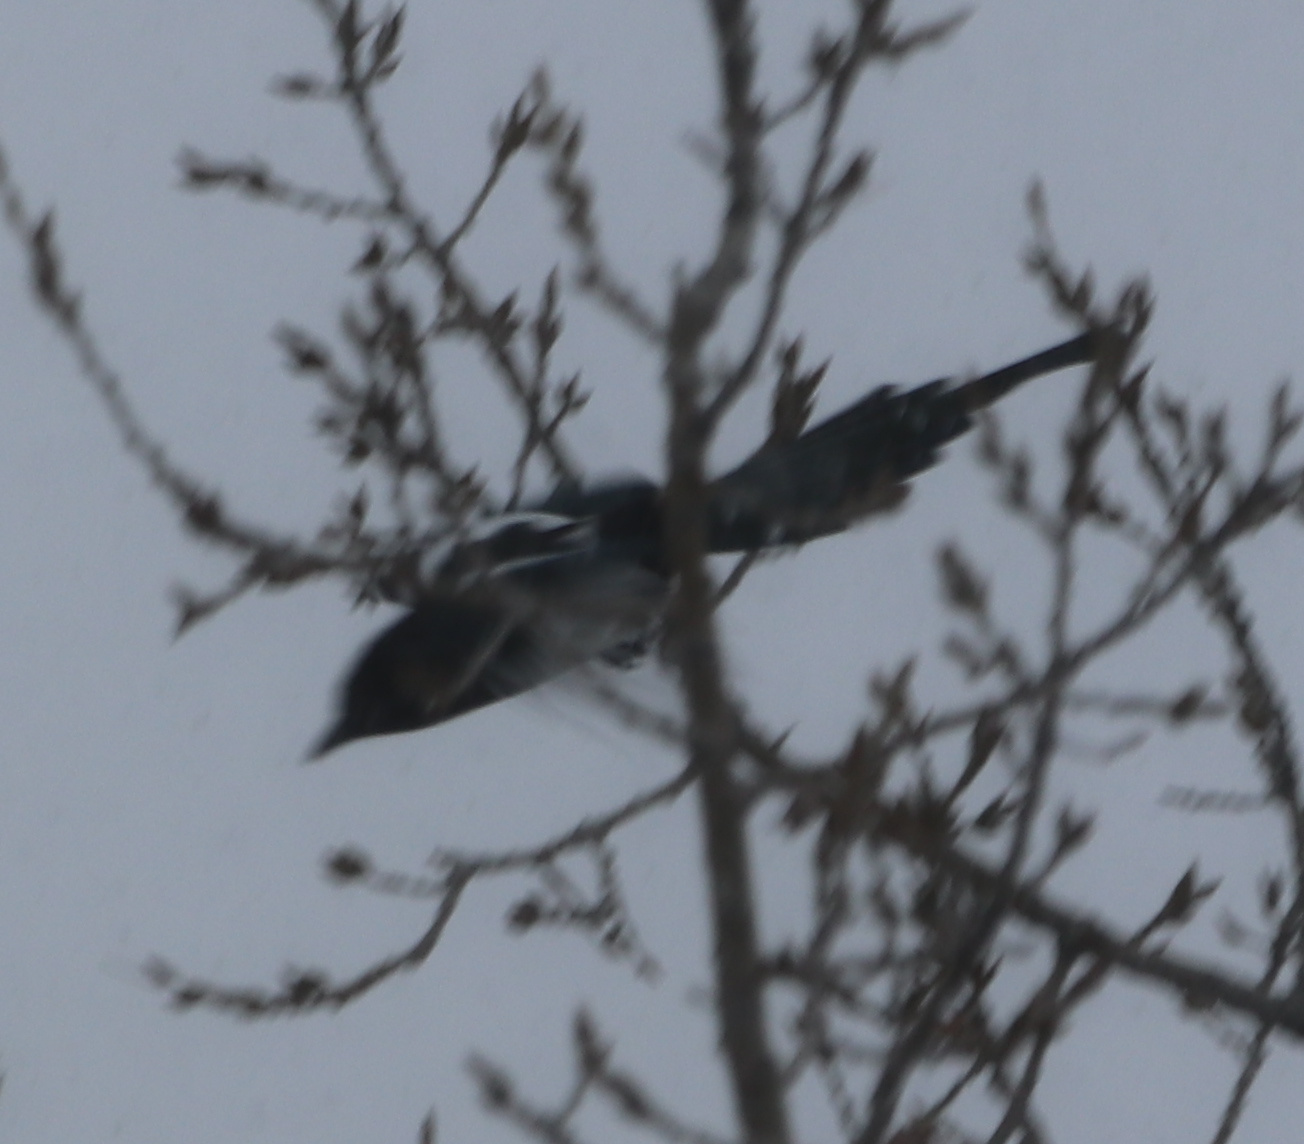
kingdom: Animalia
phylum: Chordata
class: Aves
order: Passeriformes
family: Corvidae
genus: Pica
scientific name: Pica hudsonia
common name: Black-billed magpie
